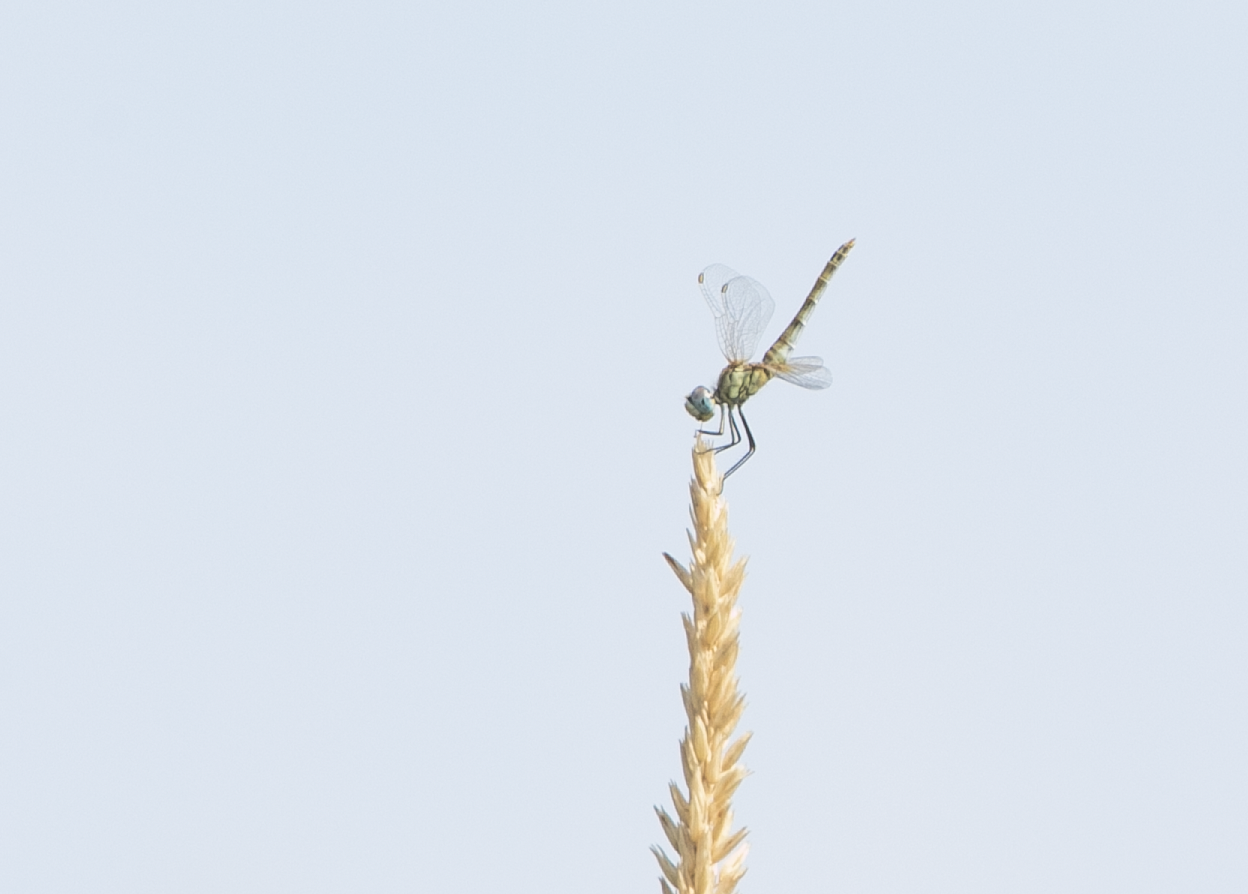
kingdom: Animalia
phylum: Arthropoda
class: Insecta
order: Odonata
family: Libellulidae
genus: Sympetrum
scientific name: Sympetrum fonscolombii
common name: Red-veined darter
